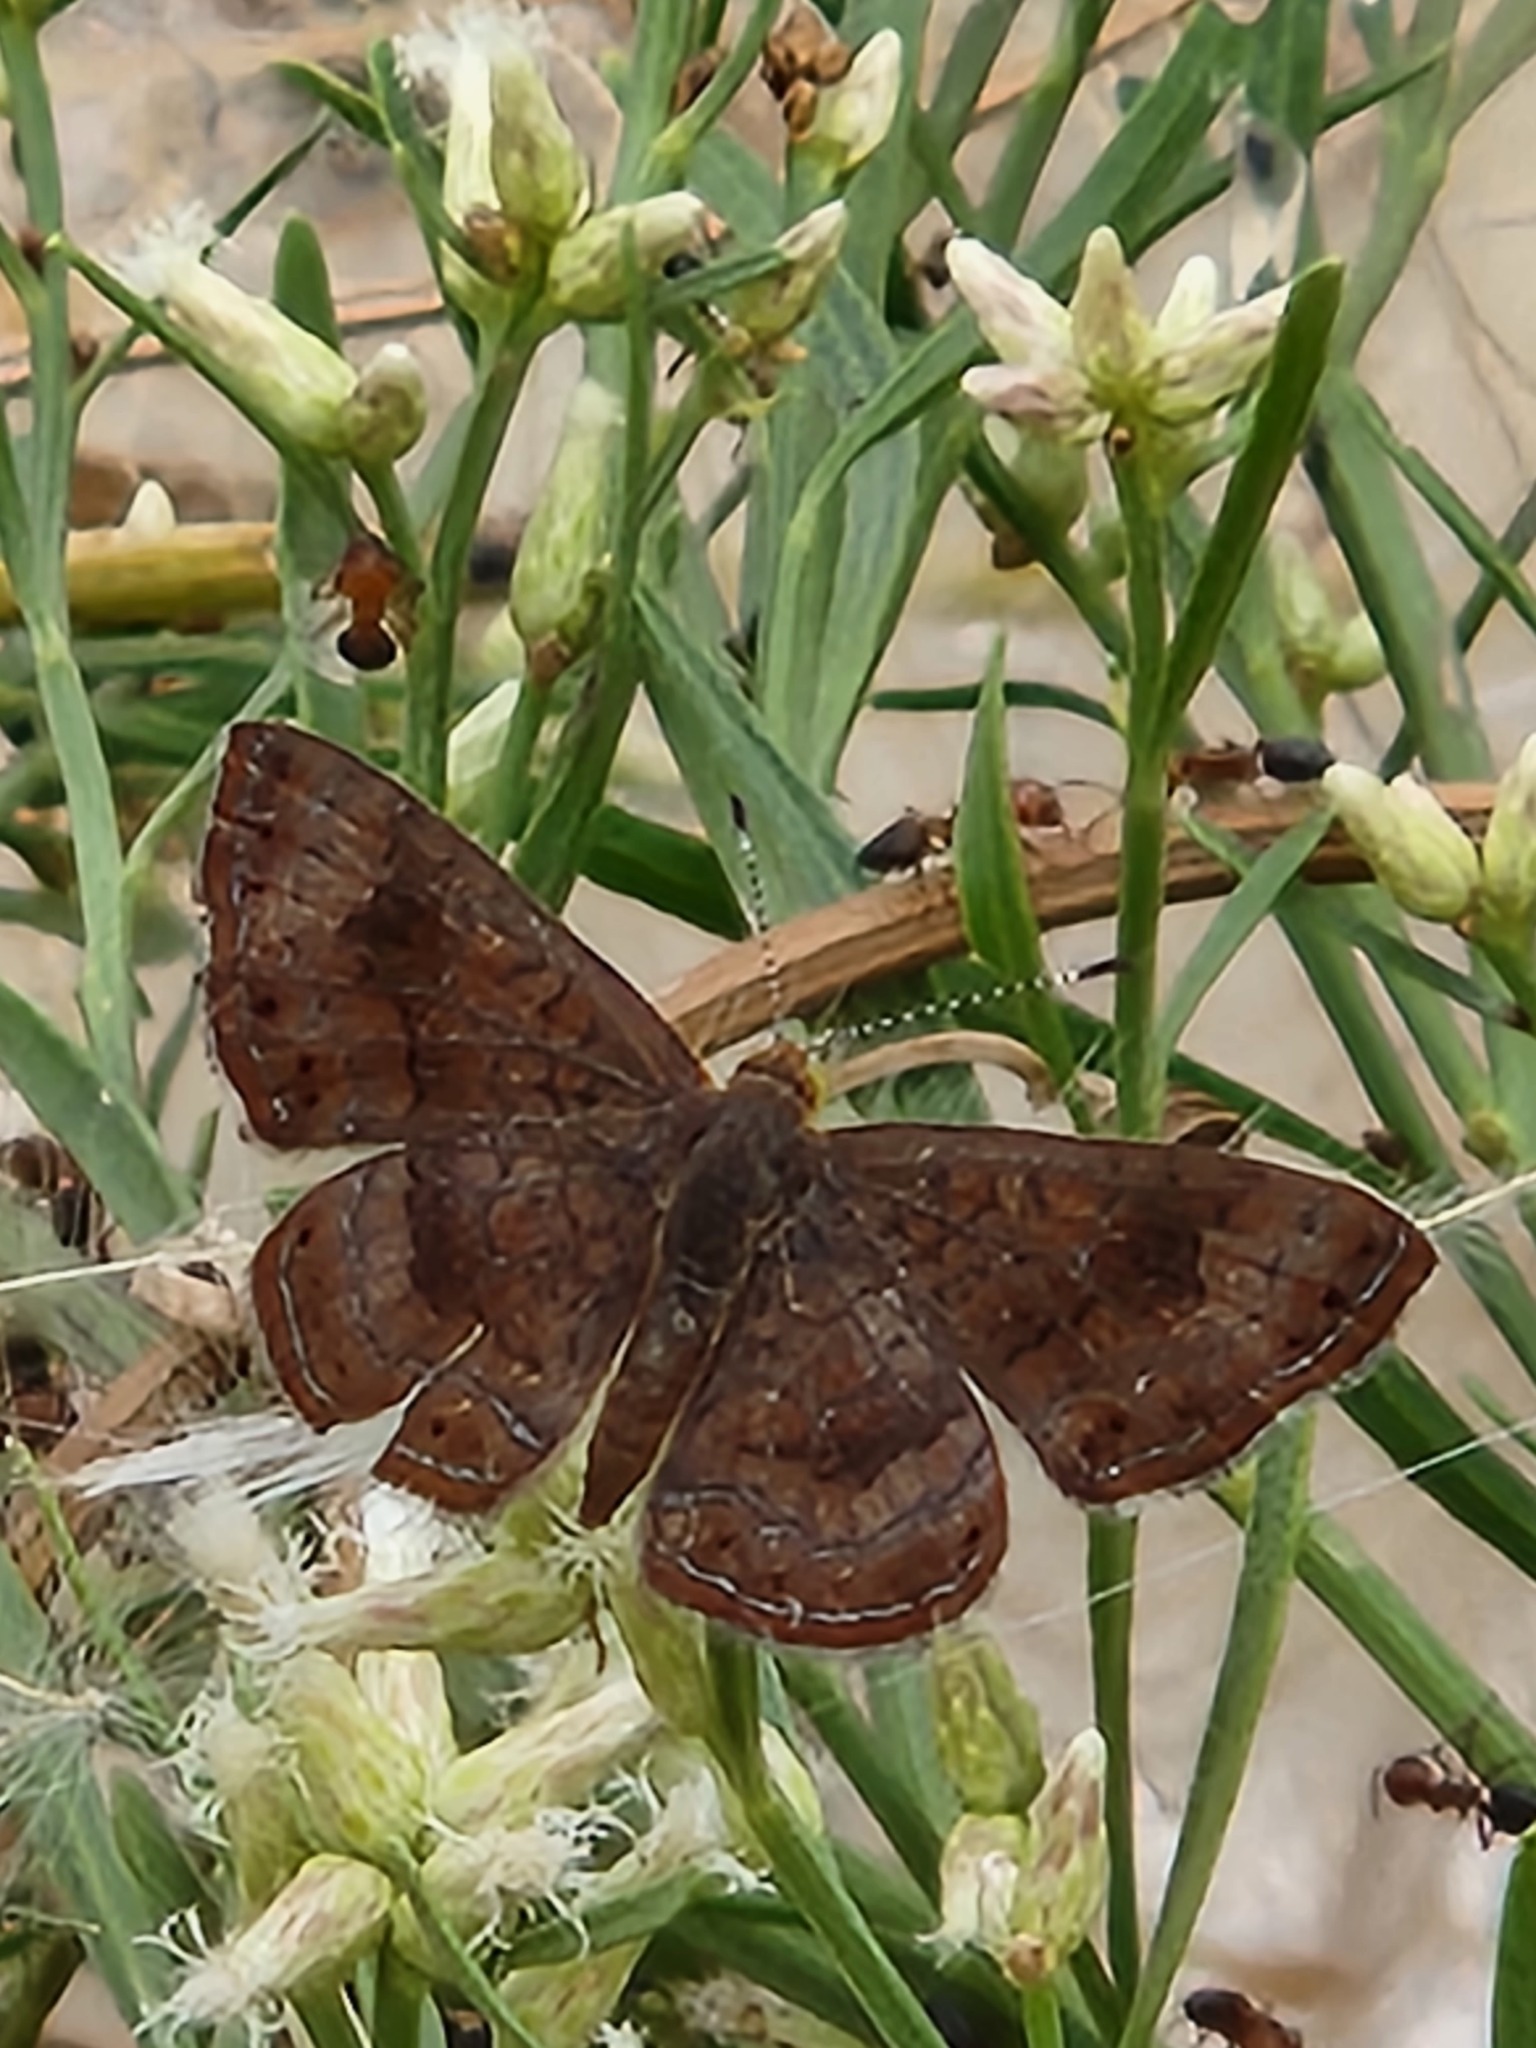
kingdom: Animalia
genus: Calephelis
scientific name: Calephelis nemesis
